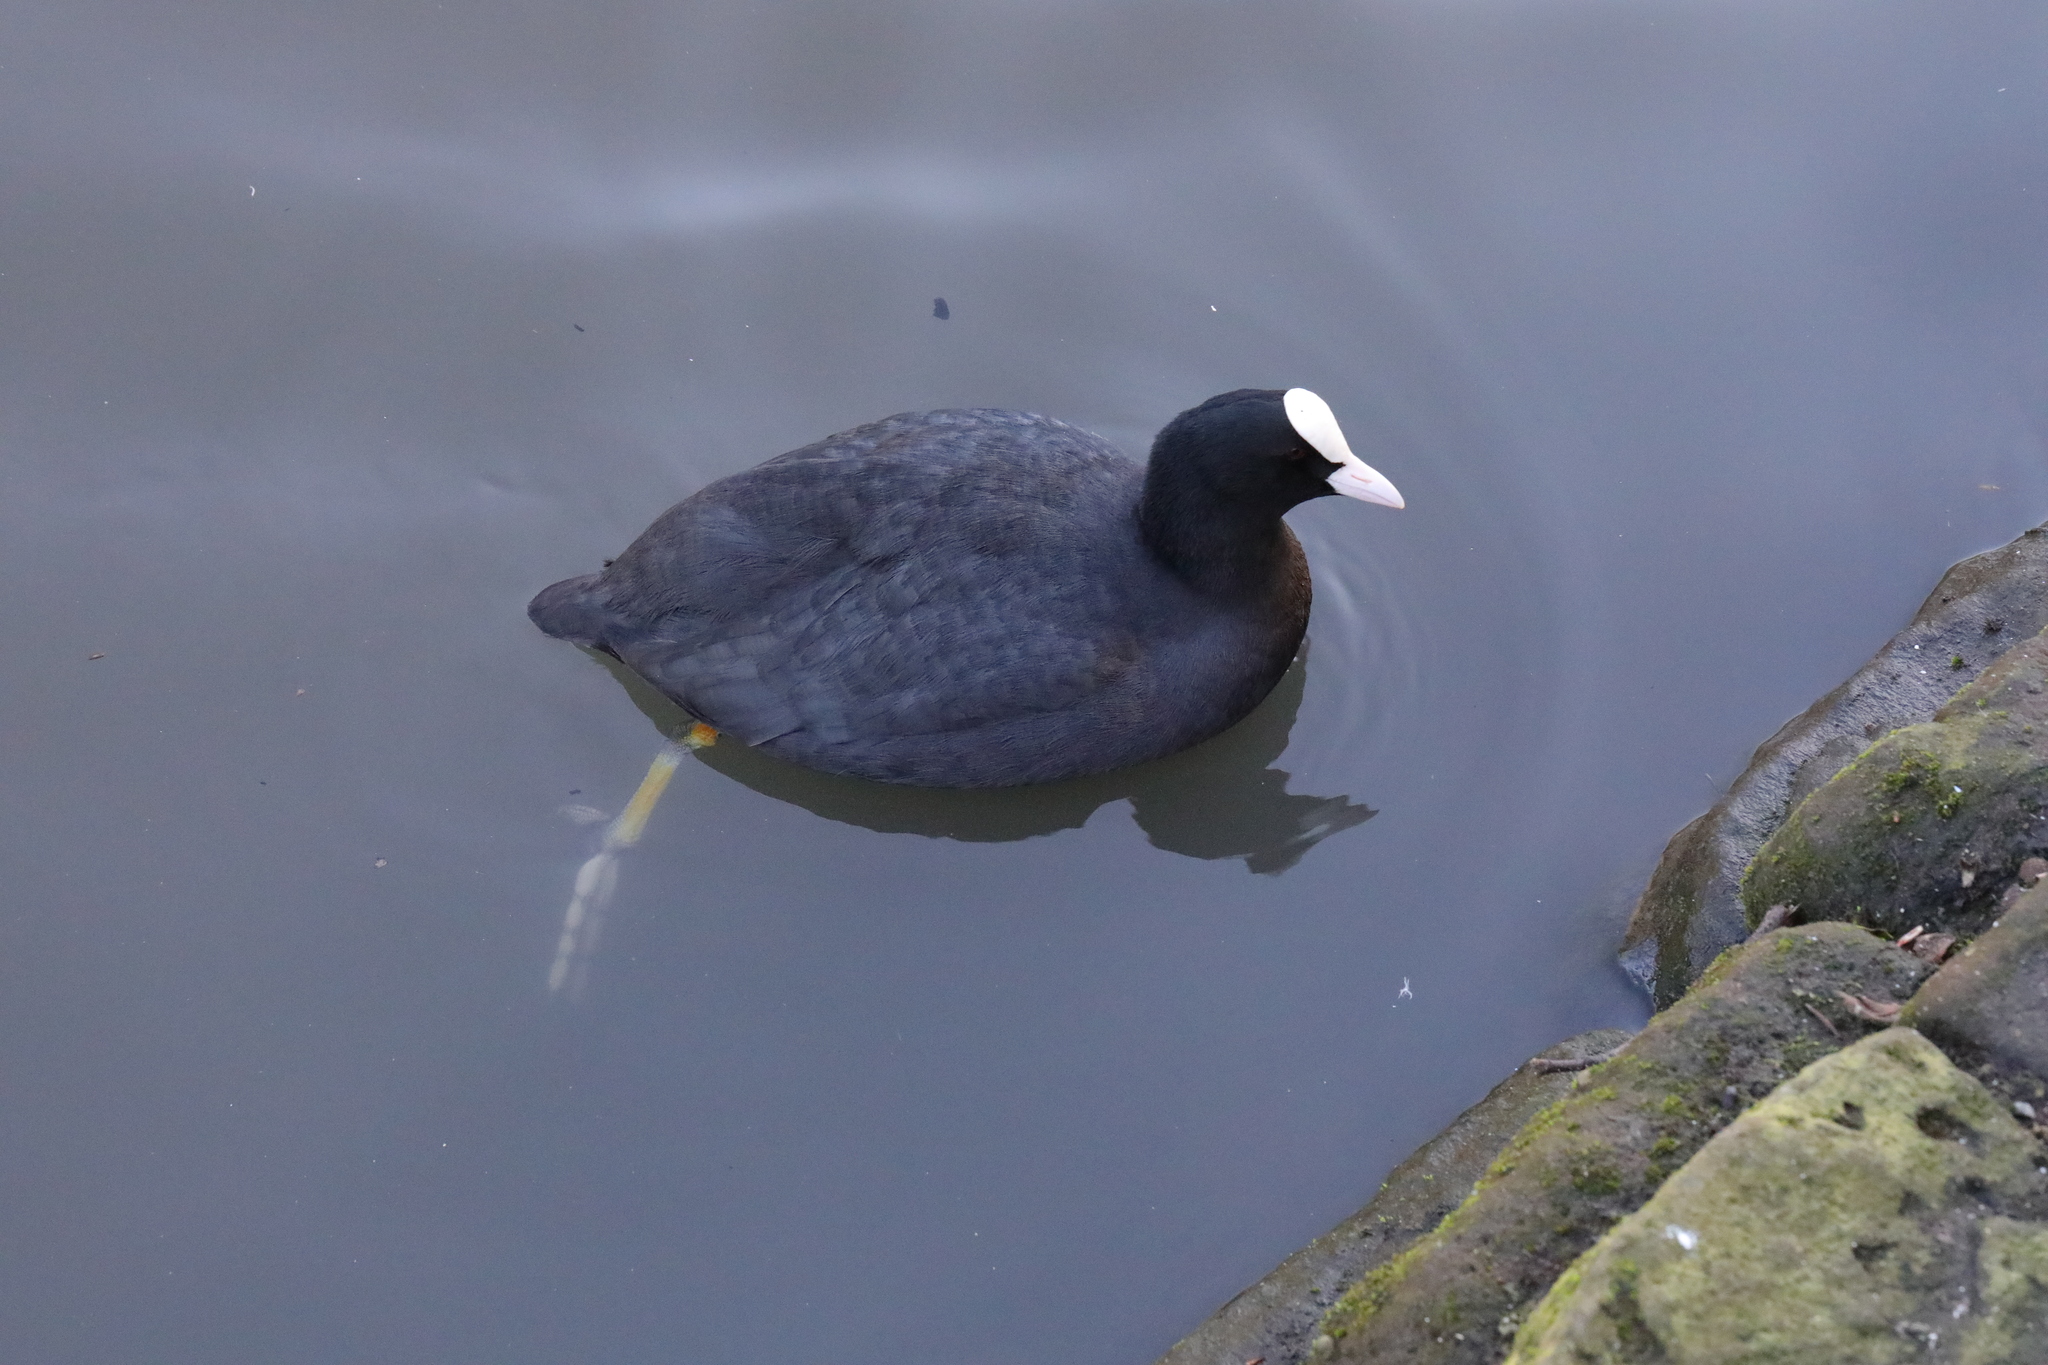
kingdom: Animalia
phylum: Chordata
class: Aves
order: Gruiformes
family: Rallidae
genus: Fulica
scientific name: Fulica atra
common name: Eurasian coot
